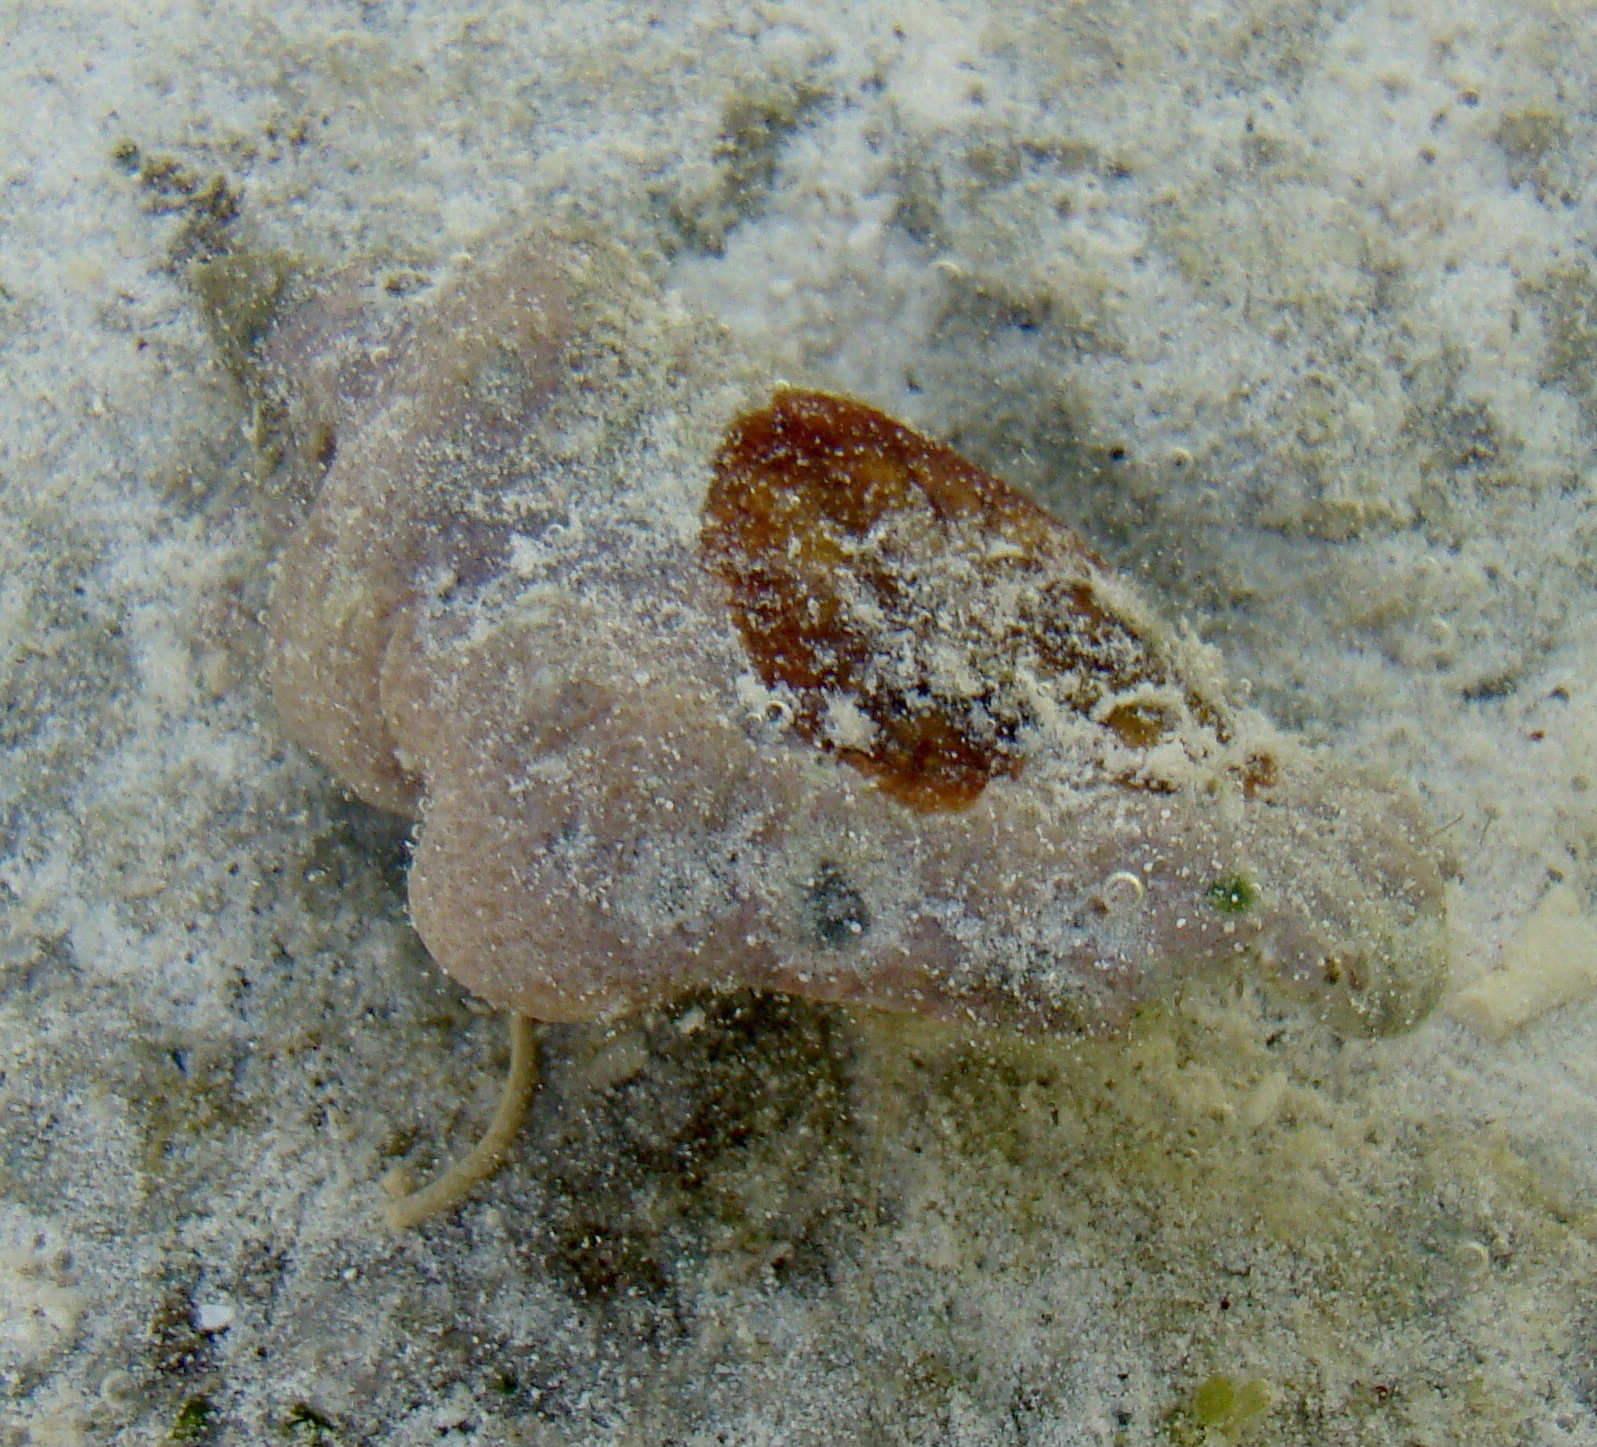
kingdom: Animalia
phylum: Arthropoda
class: Malacostraca
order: Decapoda
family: Diogenidae
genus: Dardanus
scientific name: Dardanus scutellatus
